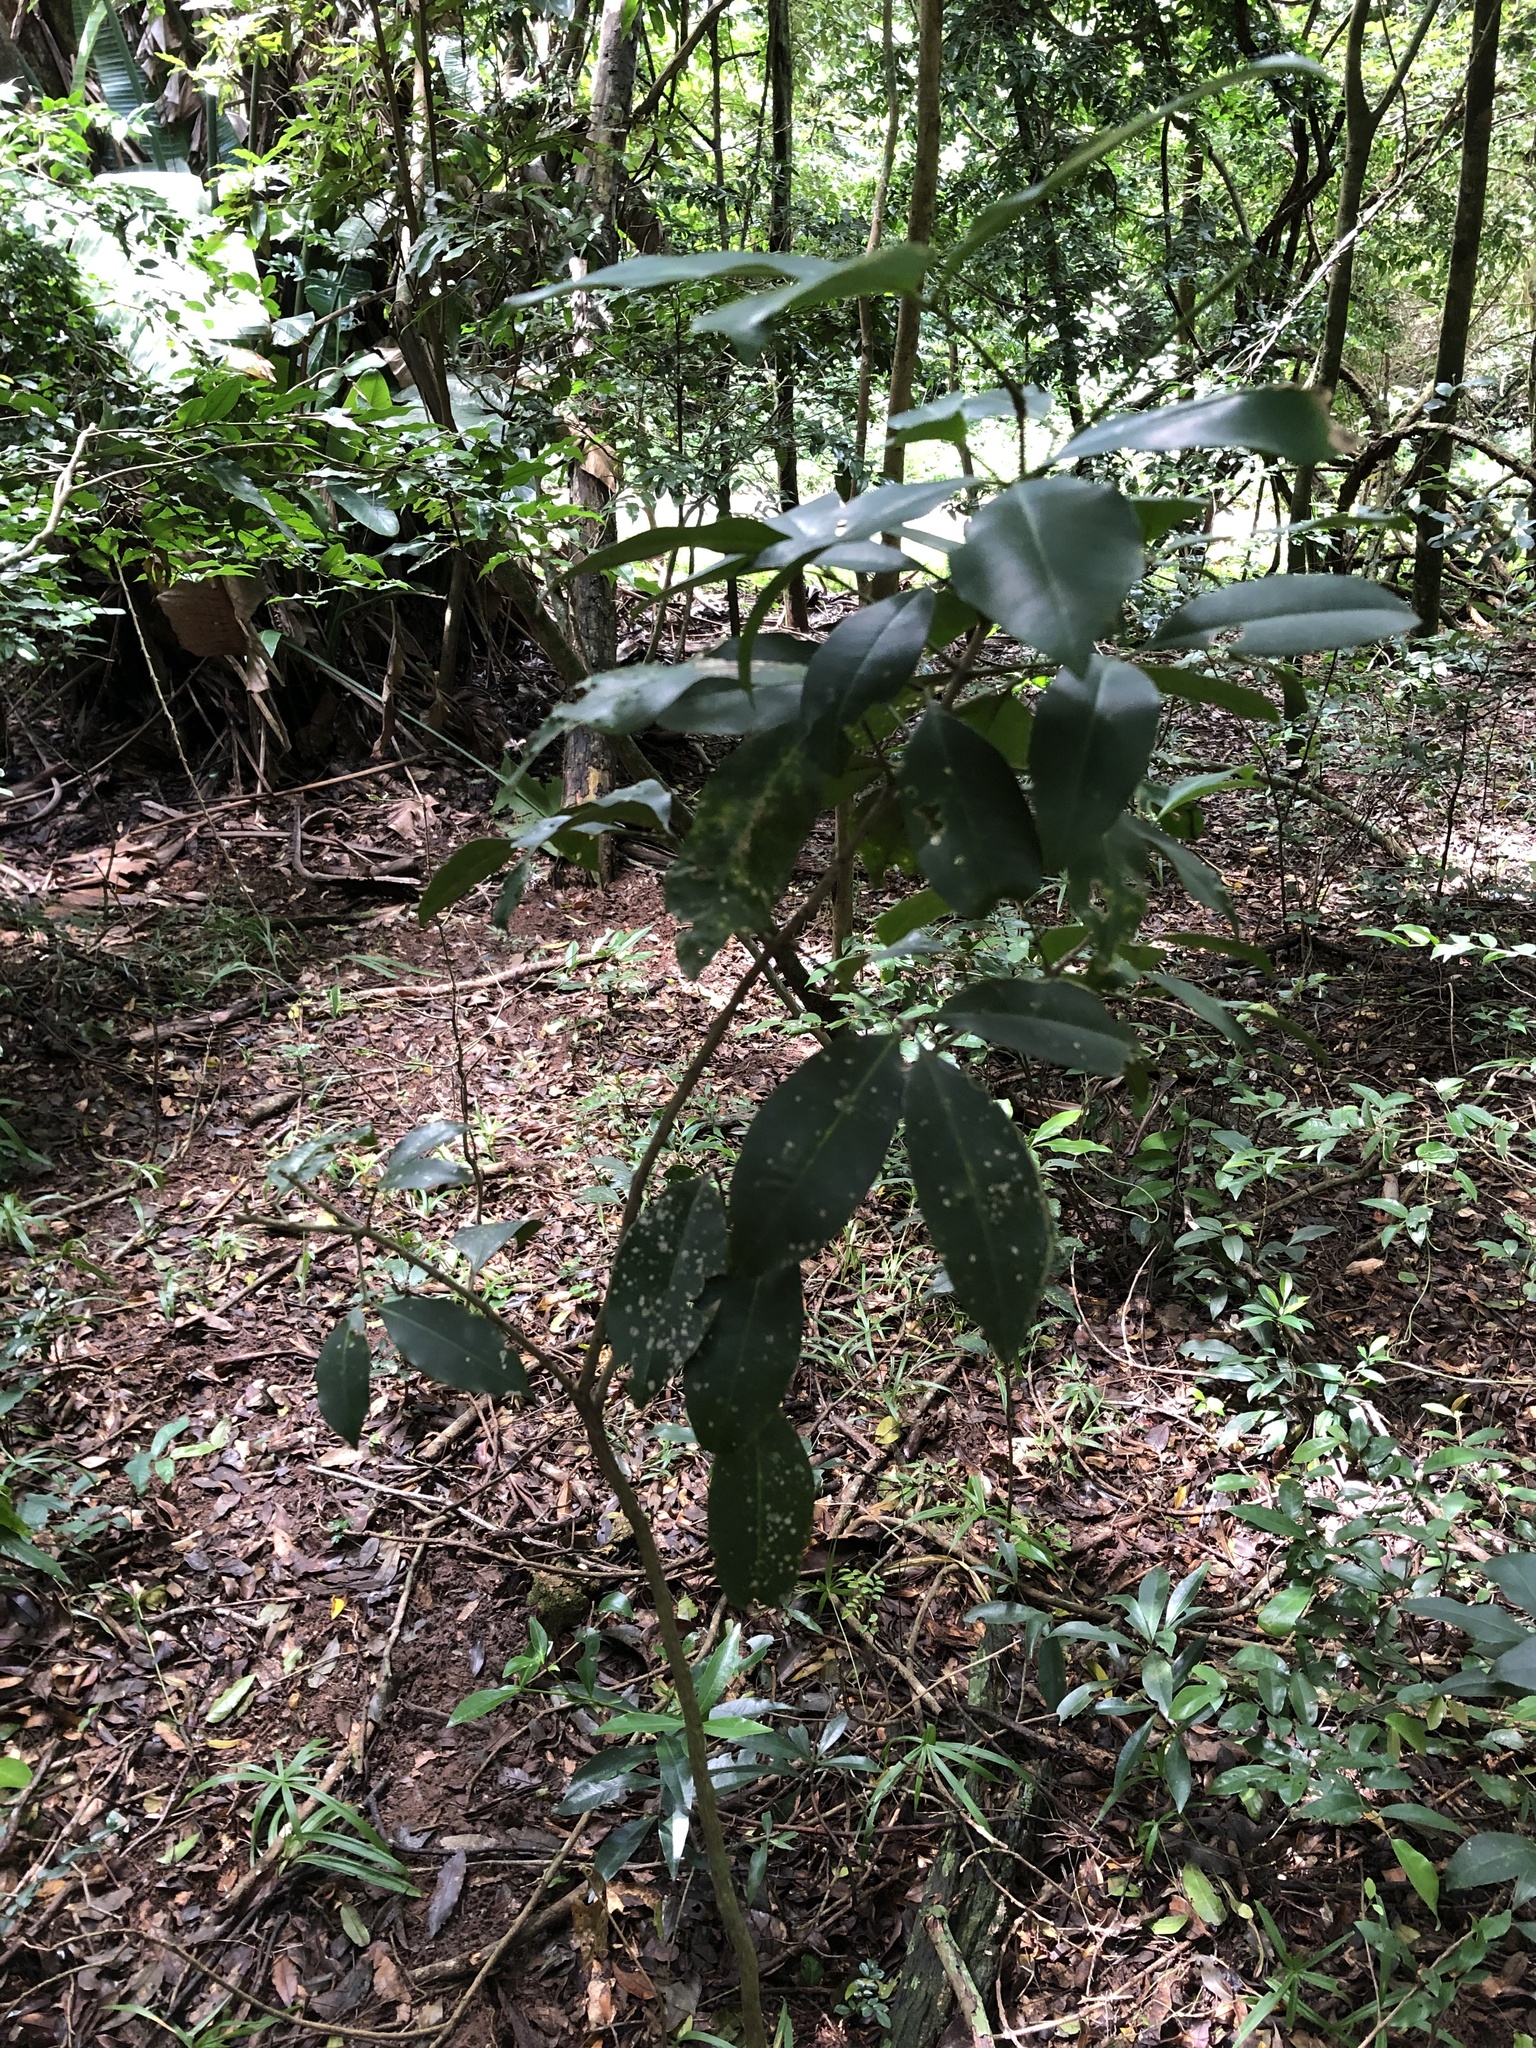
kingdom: Plantae
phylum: Tracheophyta
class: Magnoliopsida
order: Sapindales
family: Rutaceae
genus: Vepris
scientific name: Vepris natalensis
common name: Slender cherry-orange
